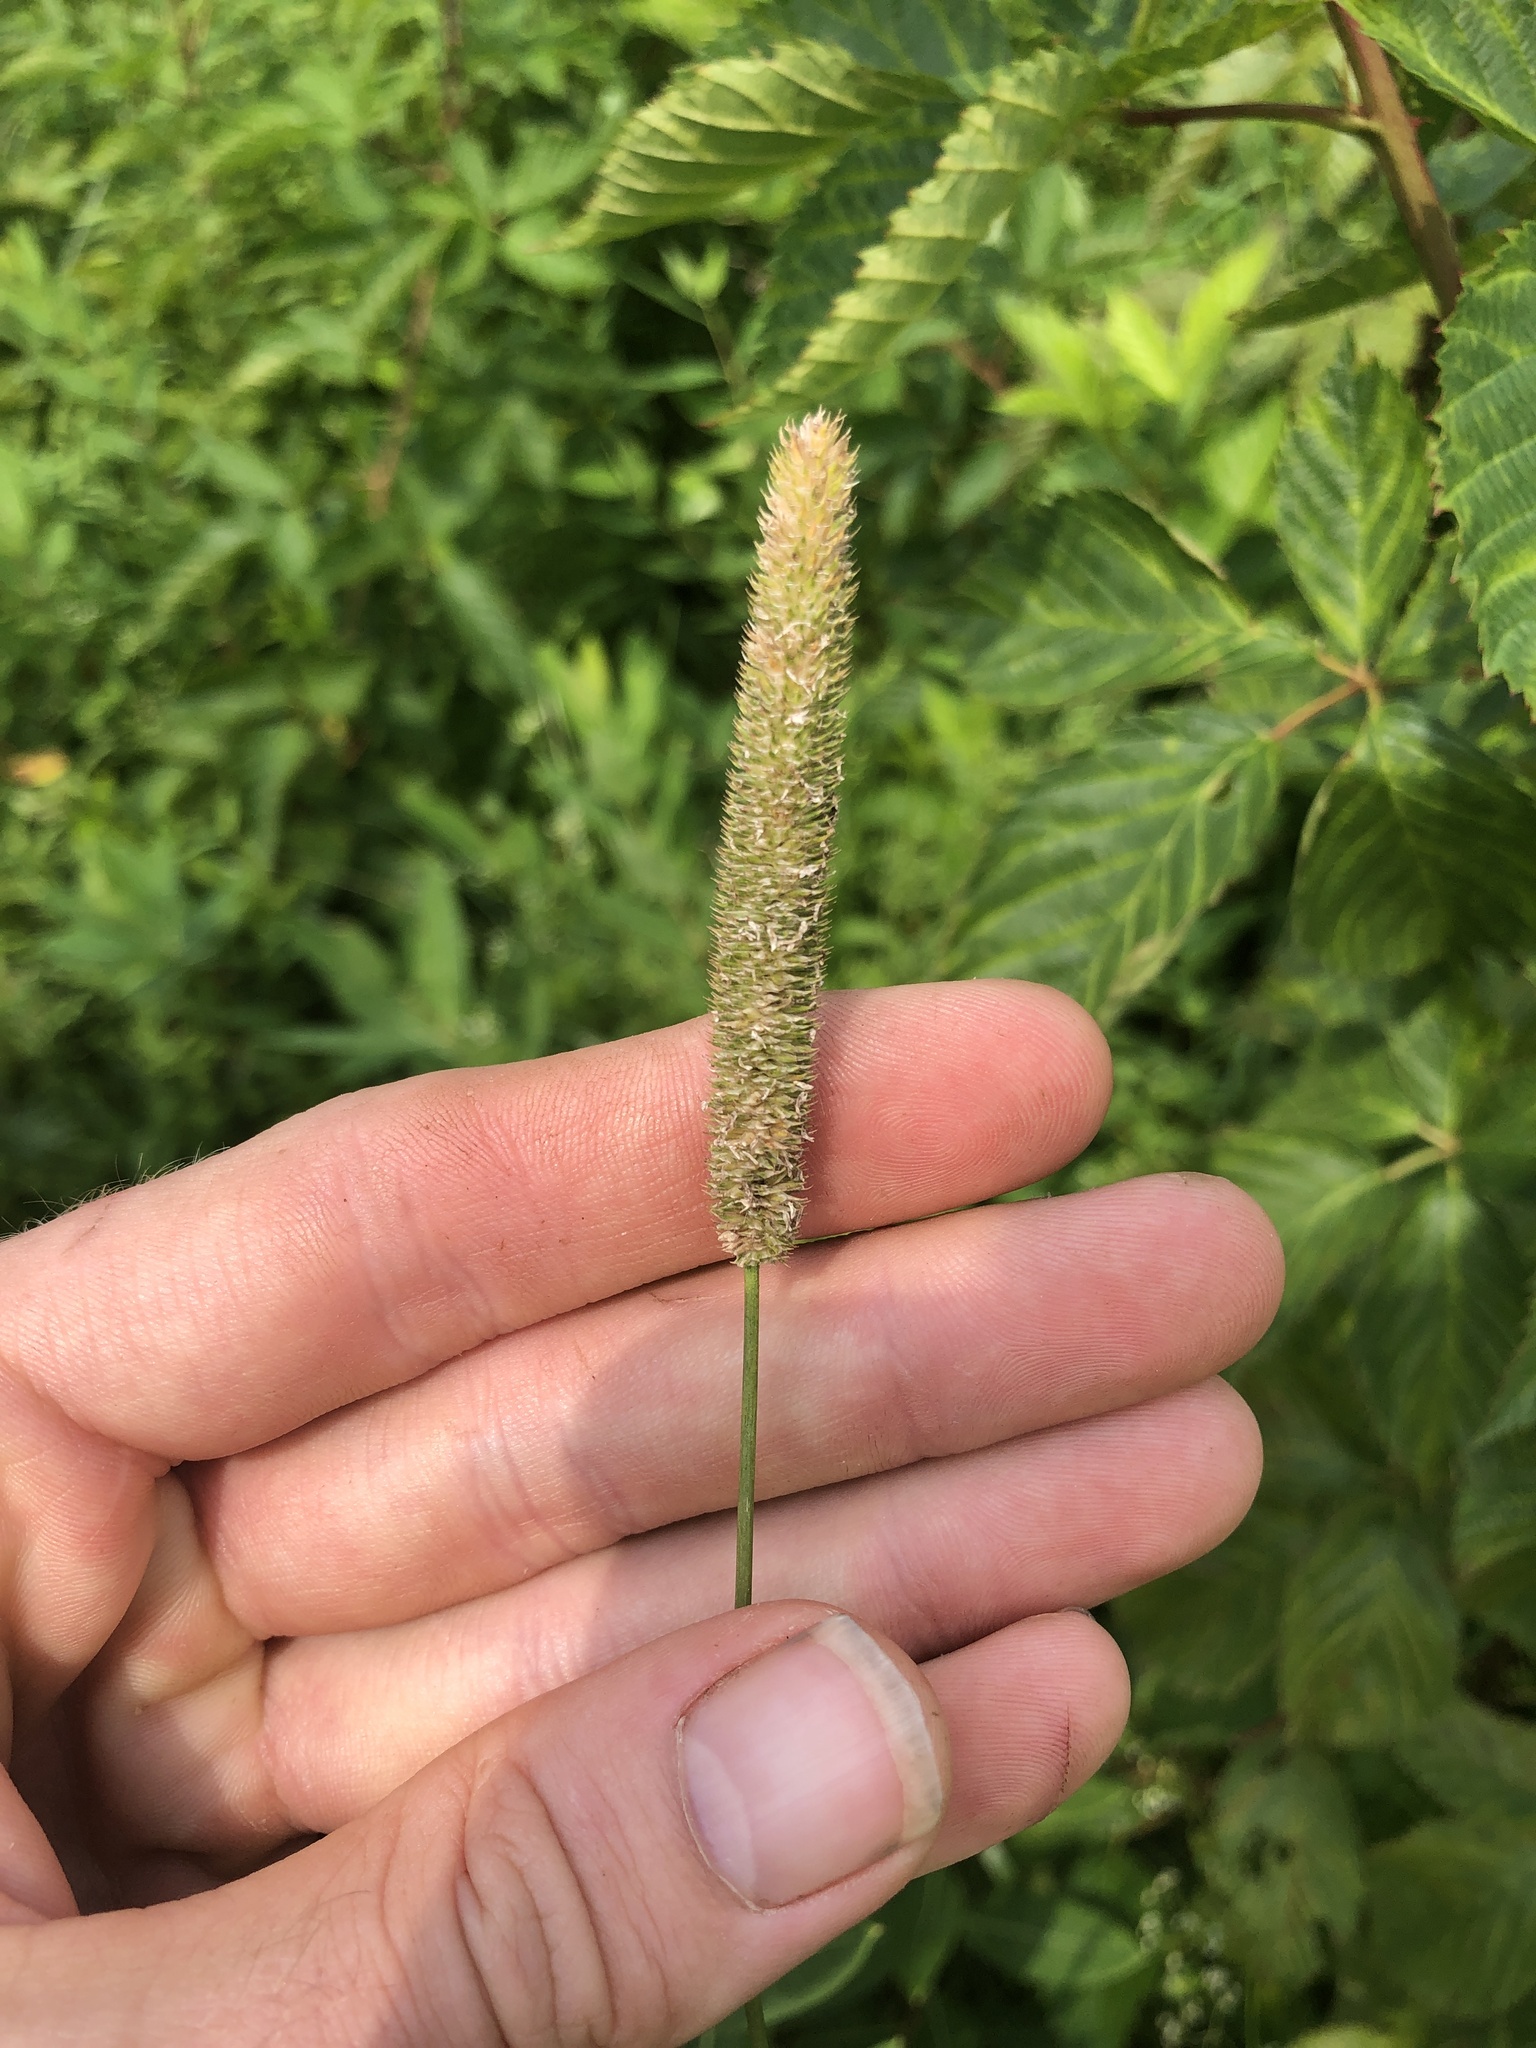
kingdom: Plantae
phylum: Tracheophyta
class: Liliopsida
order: Poales
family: Poaceae
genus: Phleum
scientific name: Phleum pratense
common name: Timothy grass
